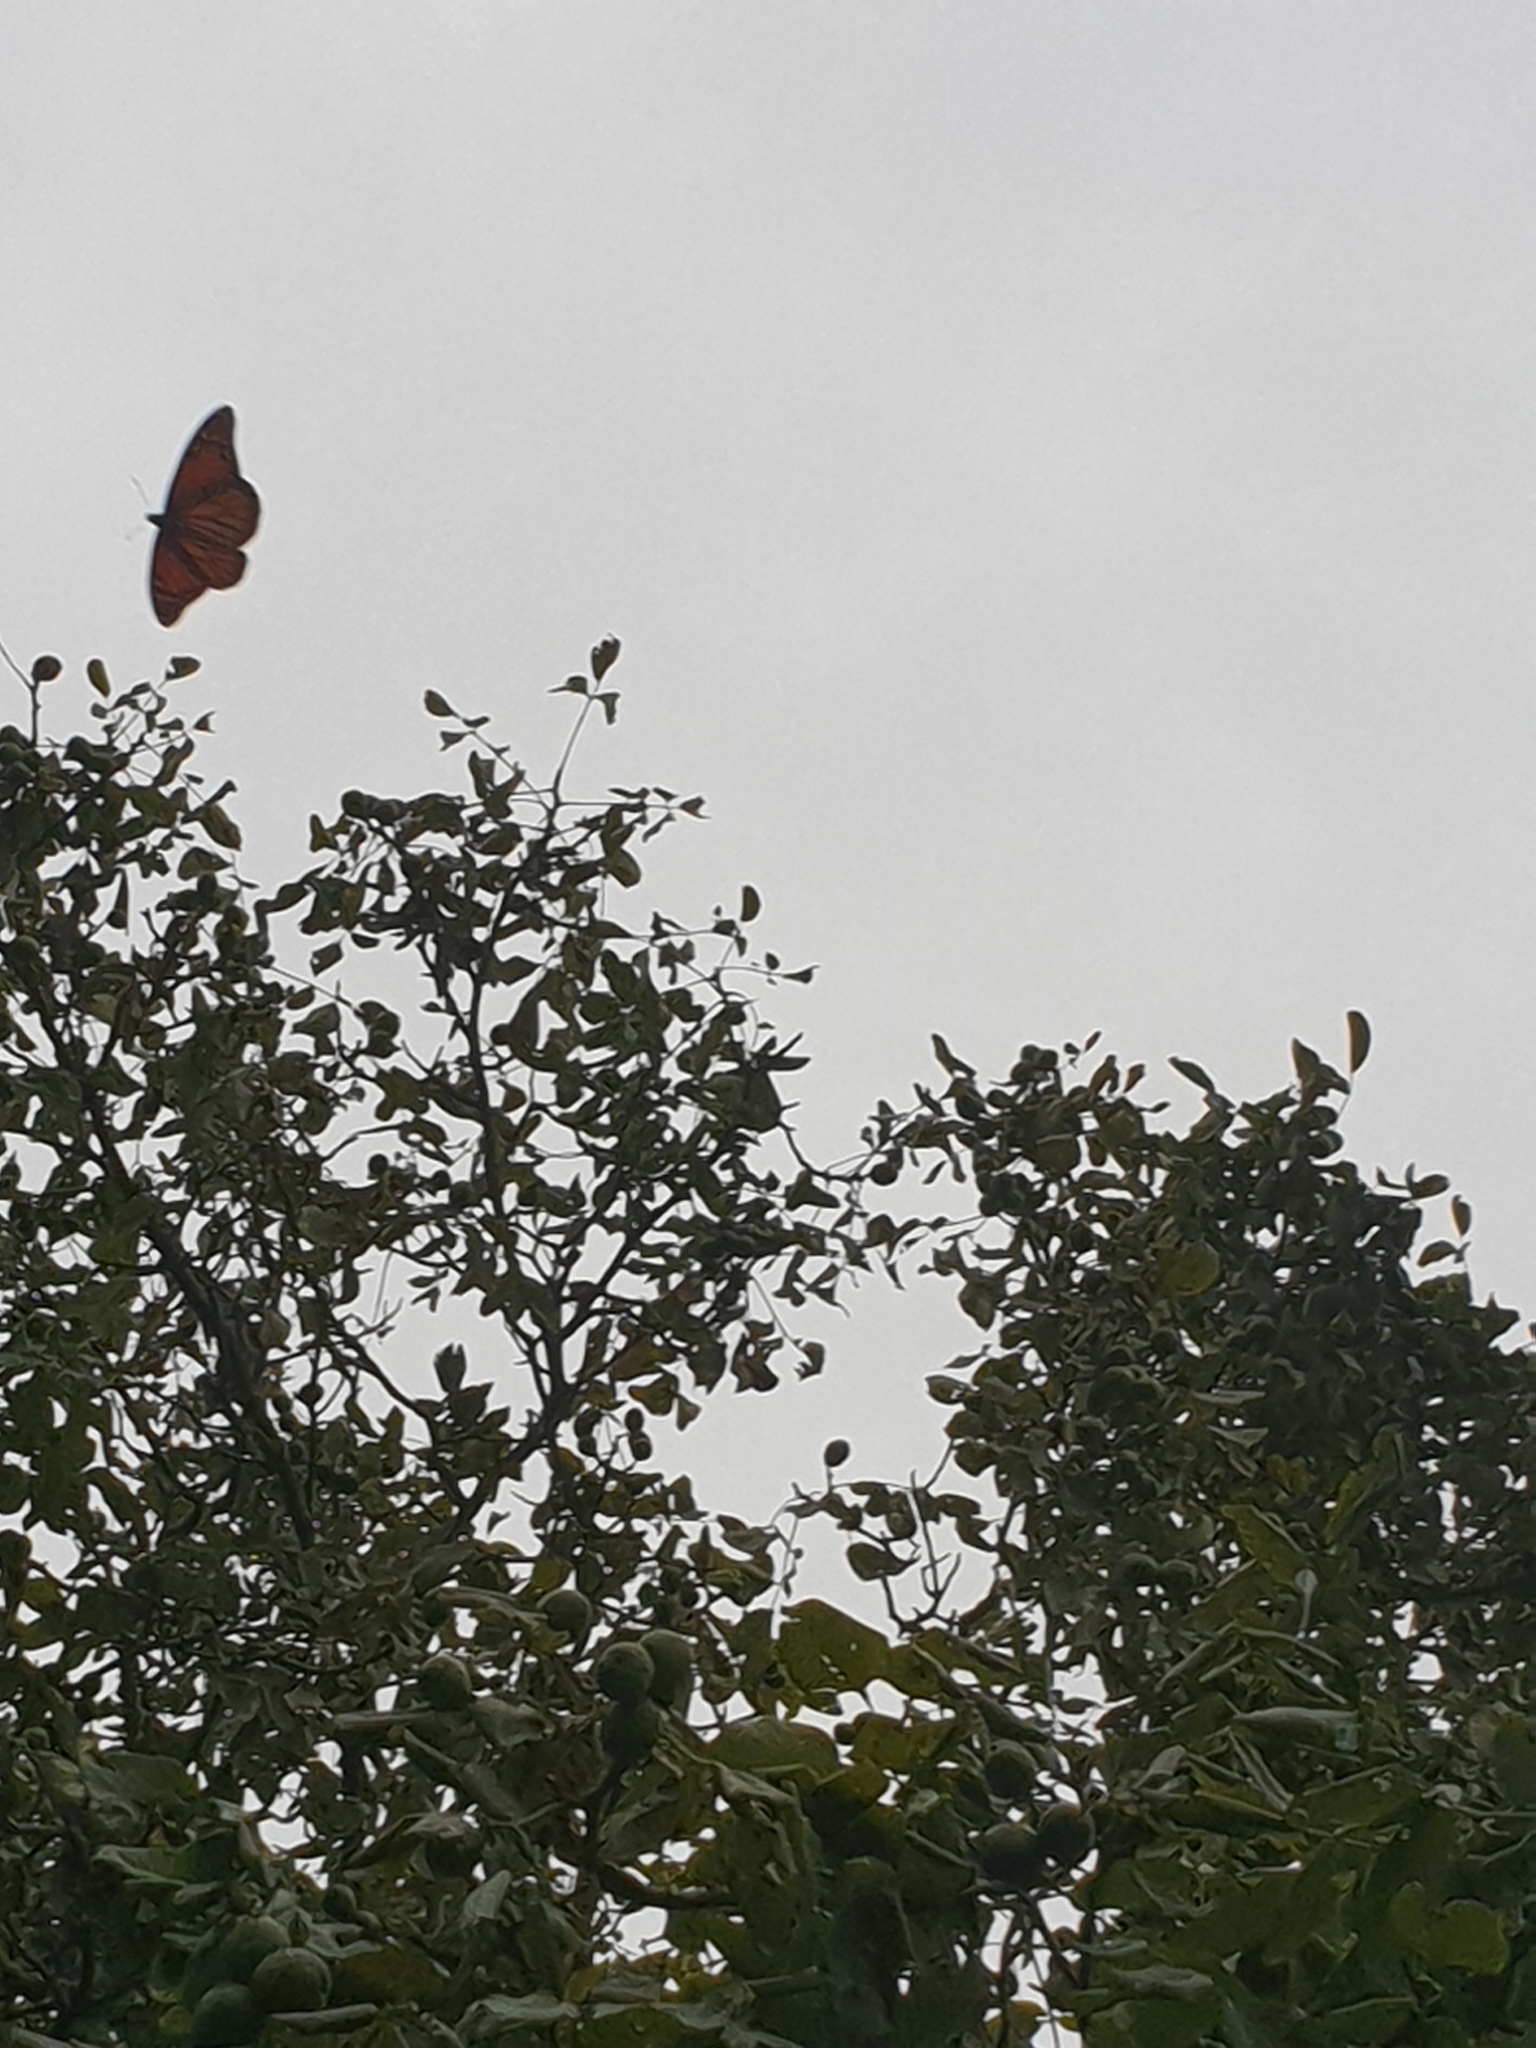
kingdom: Animalia
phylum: Arthropoda
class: Insecta
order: Lepidoptera
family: Nymphalidae
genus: Danaus
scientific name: Danaus plexippus
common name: Monarch
